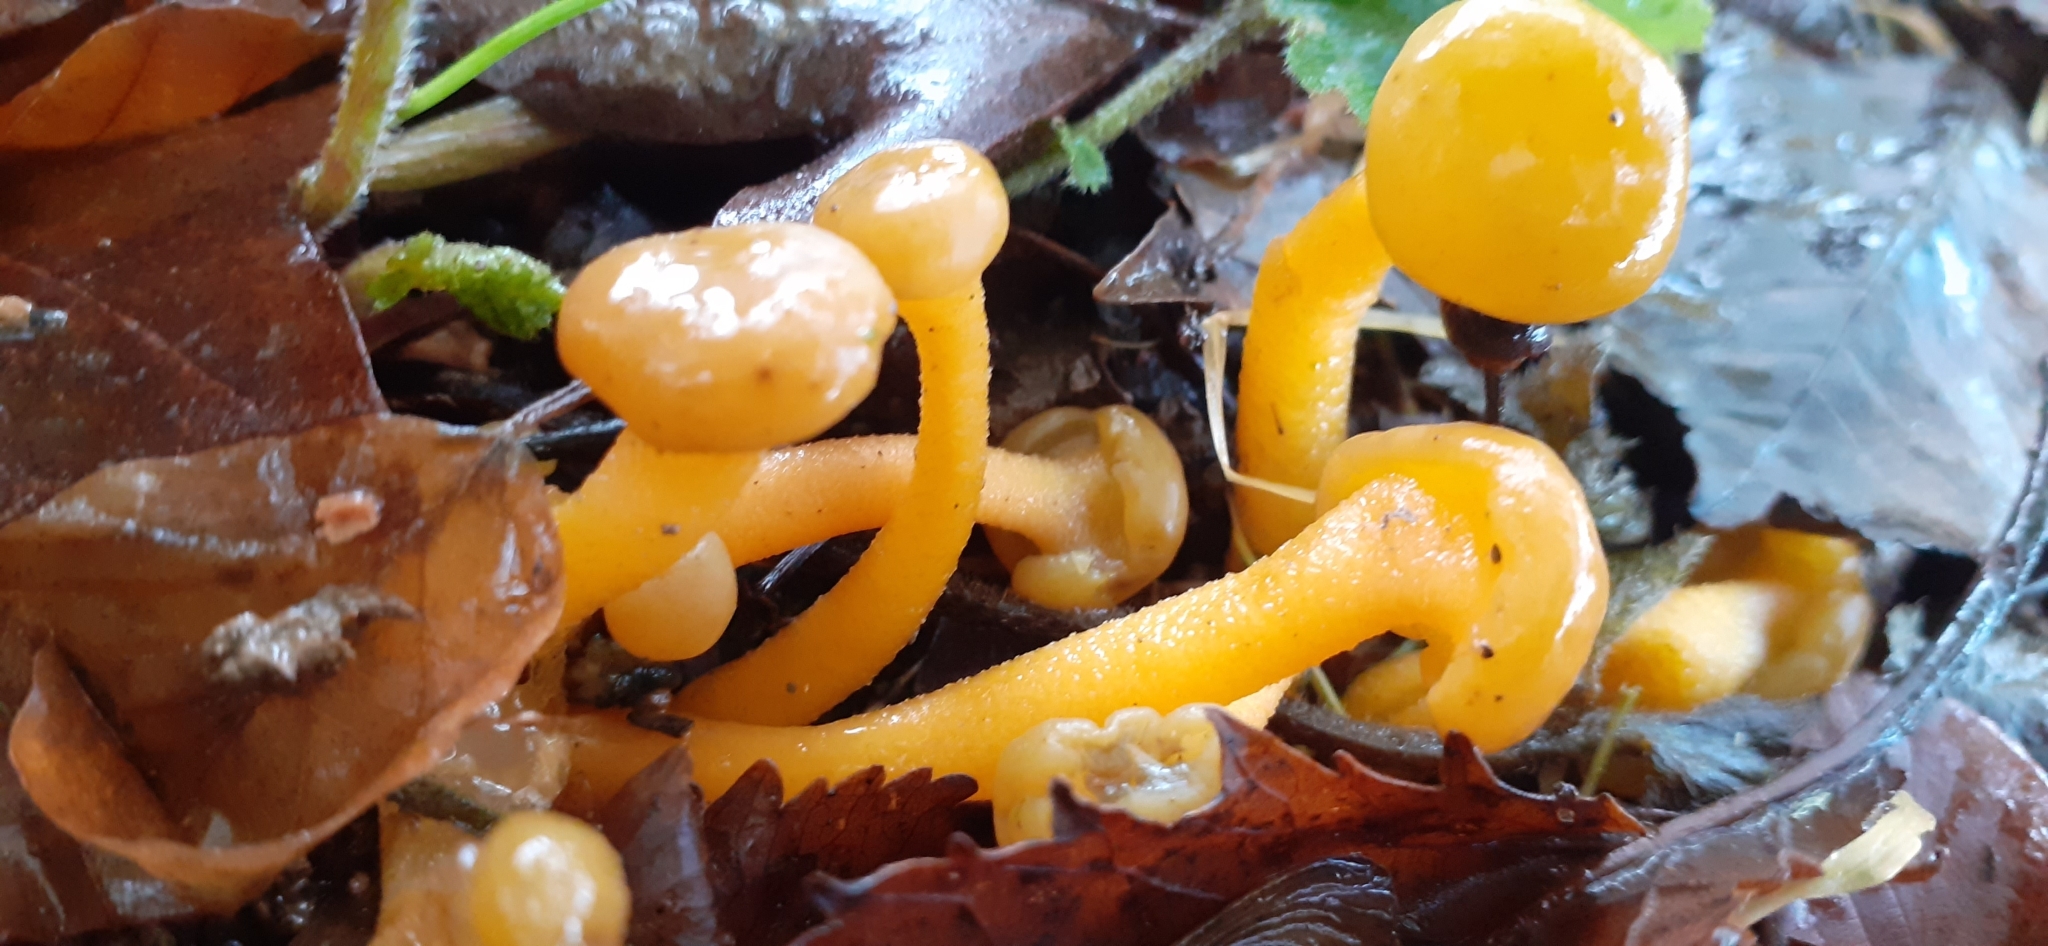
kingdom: Fungi
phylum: Ascomycota
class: Leotiomycetes
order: Leotiales
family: Leotiaceae
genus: Leotia
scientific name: Leotia lubrica
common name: Jellybaby
